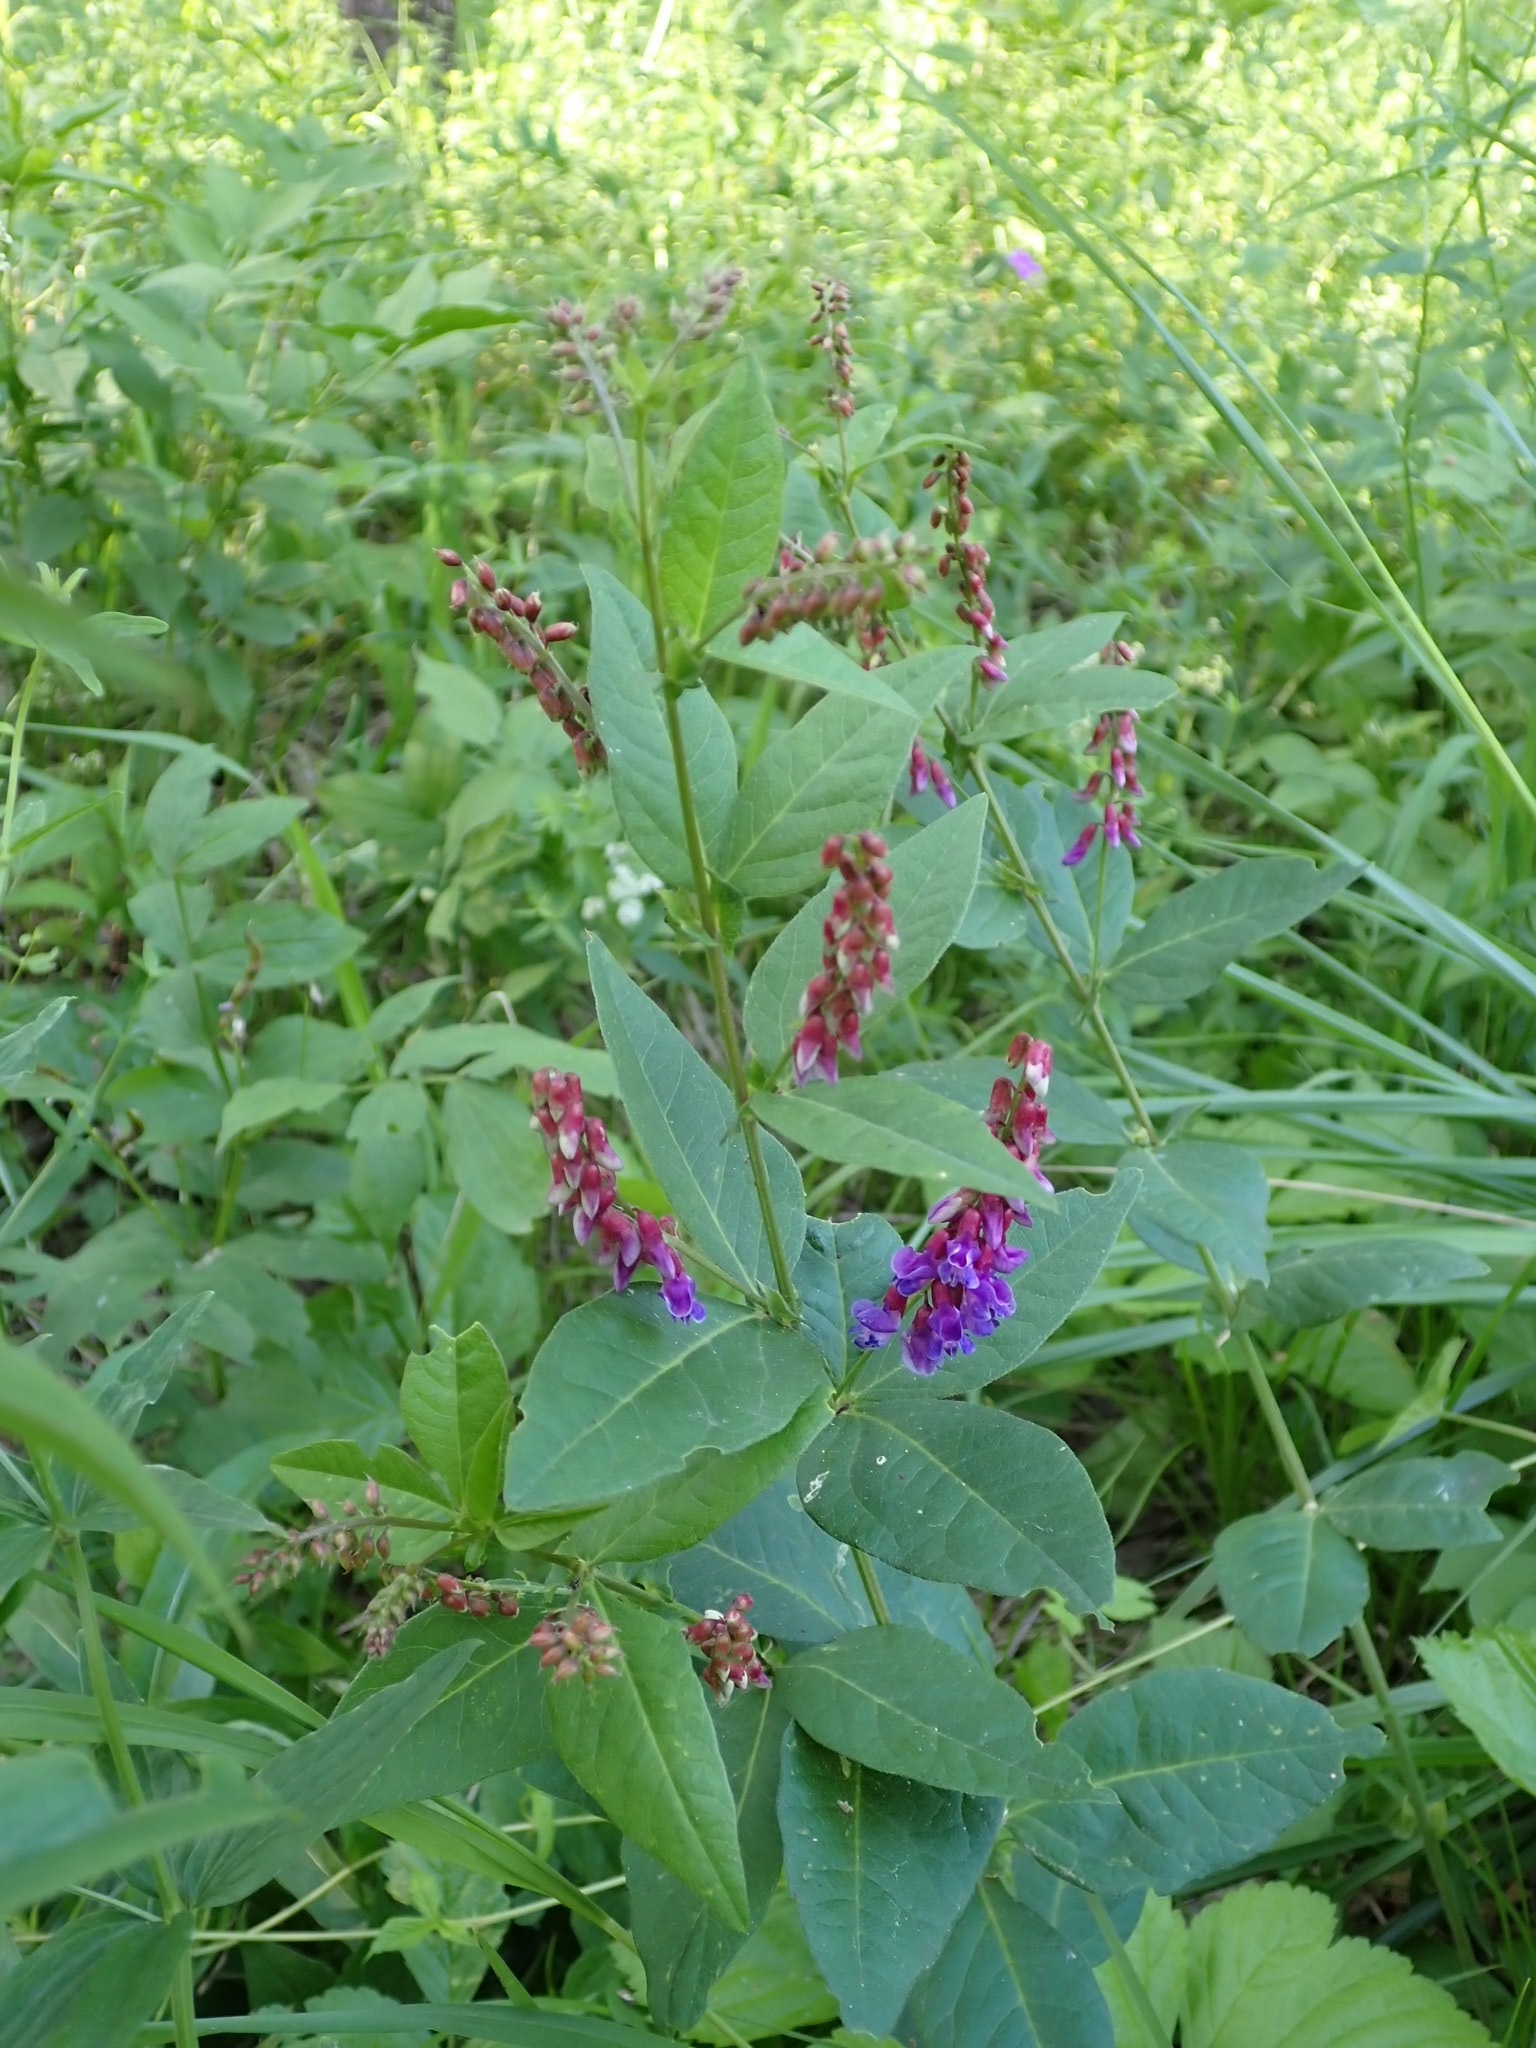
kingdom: Plantae
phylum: Tracheophyta
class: Magnoliopsida
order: Fabales
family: Fabaceae
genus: Vicia
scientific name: Vicia unijuga
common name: Two-leaf vetch
